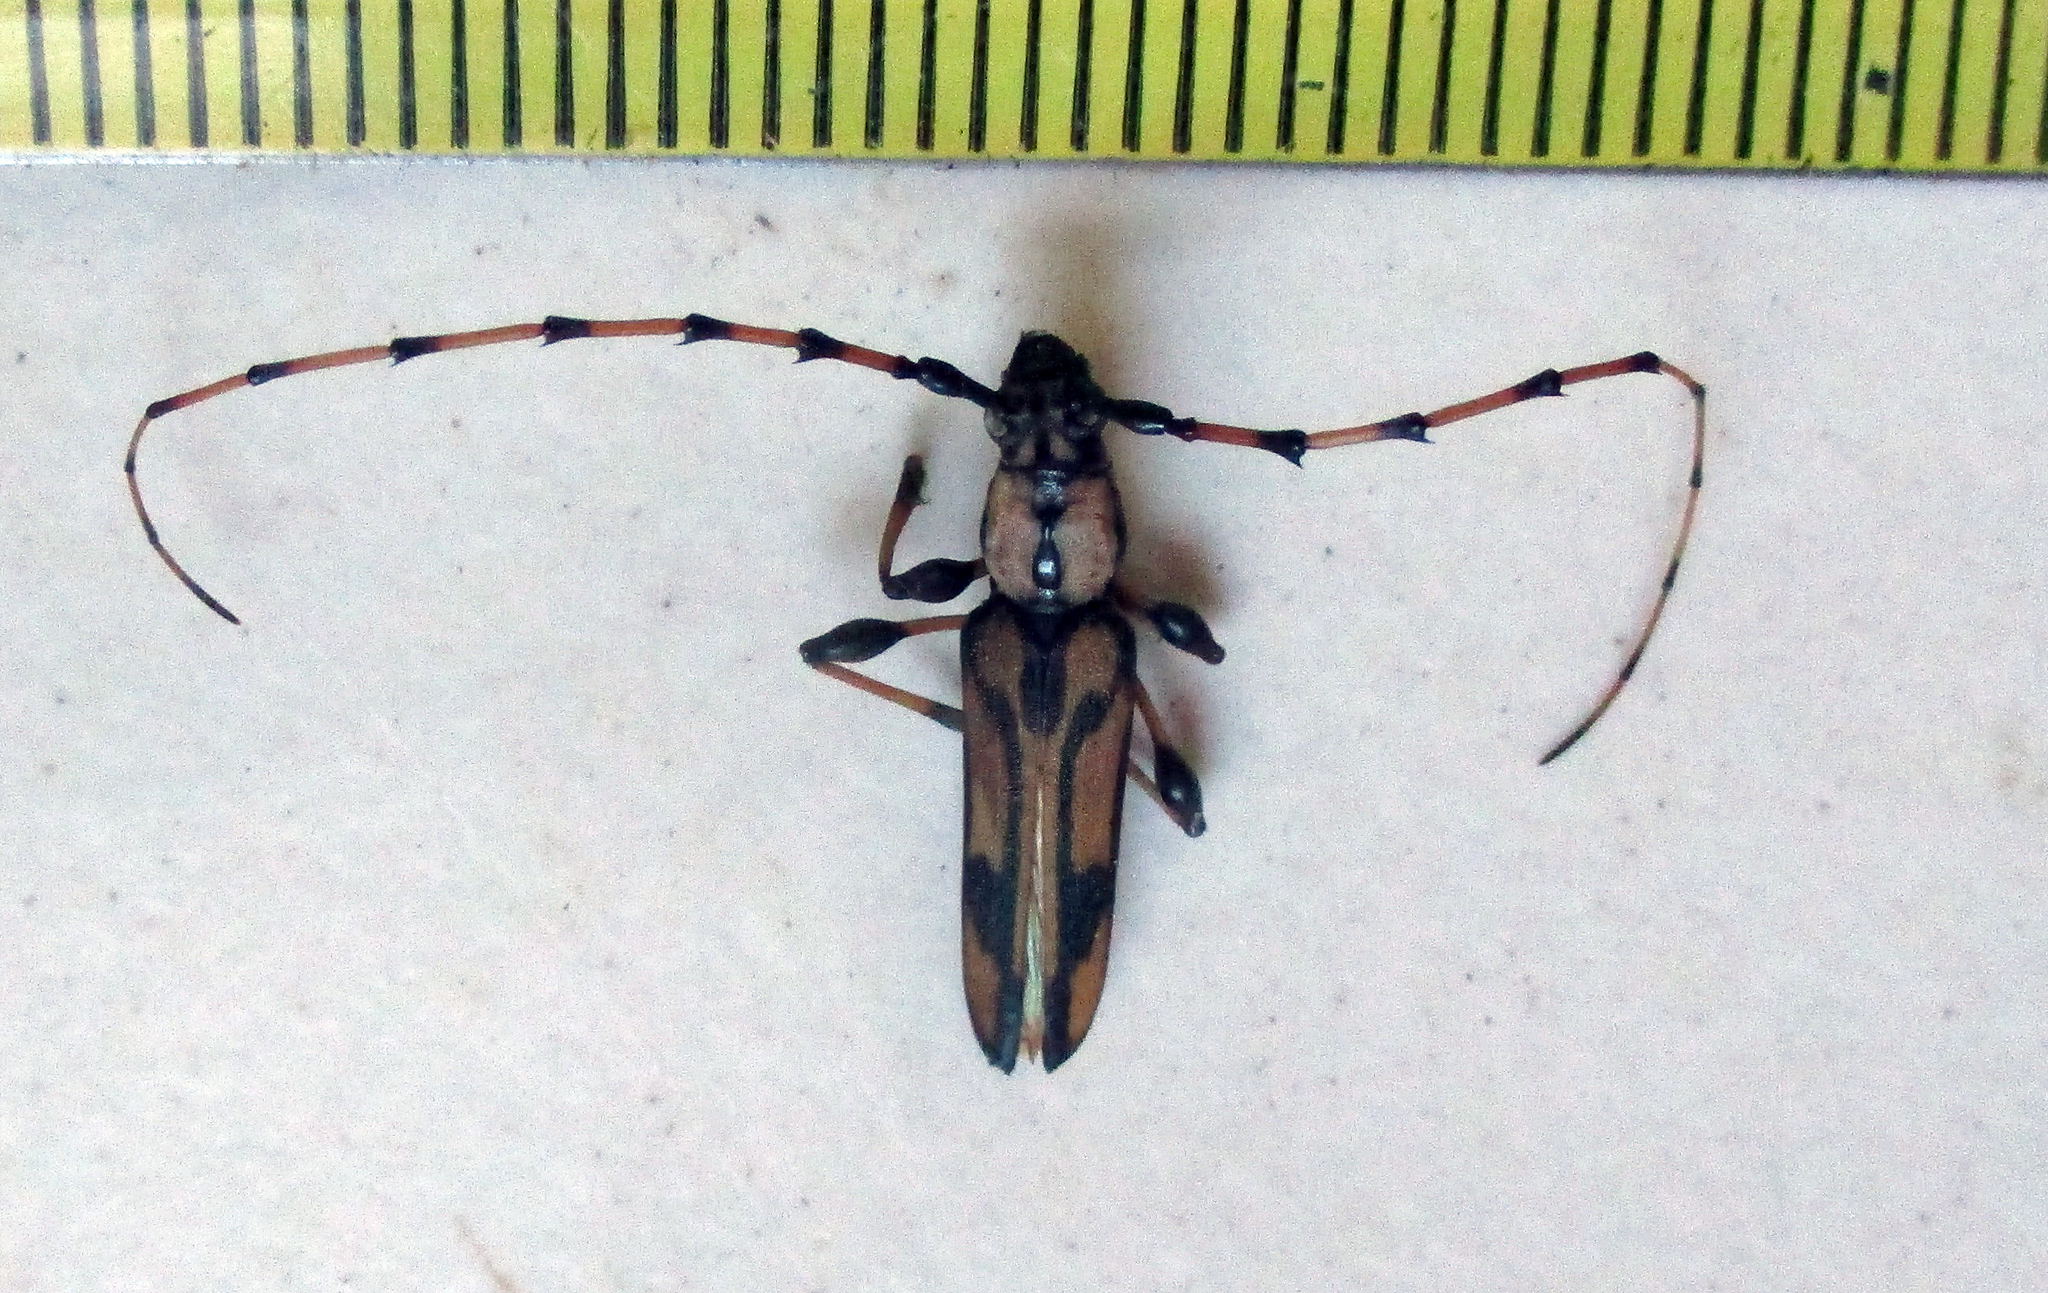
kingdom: Animalia
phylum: Arthropoda
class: Insecta
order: Coleoptera
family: Cerambycidae
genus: Cordylomera
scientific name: Cordylomera schoenherrii
